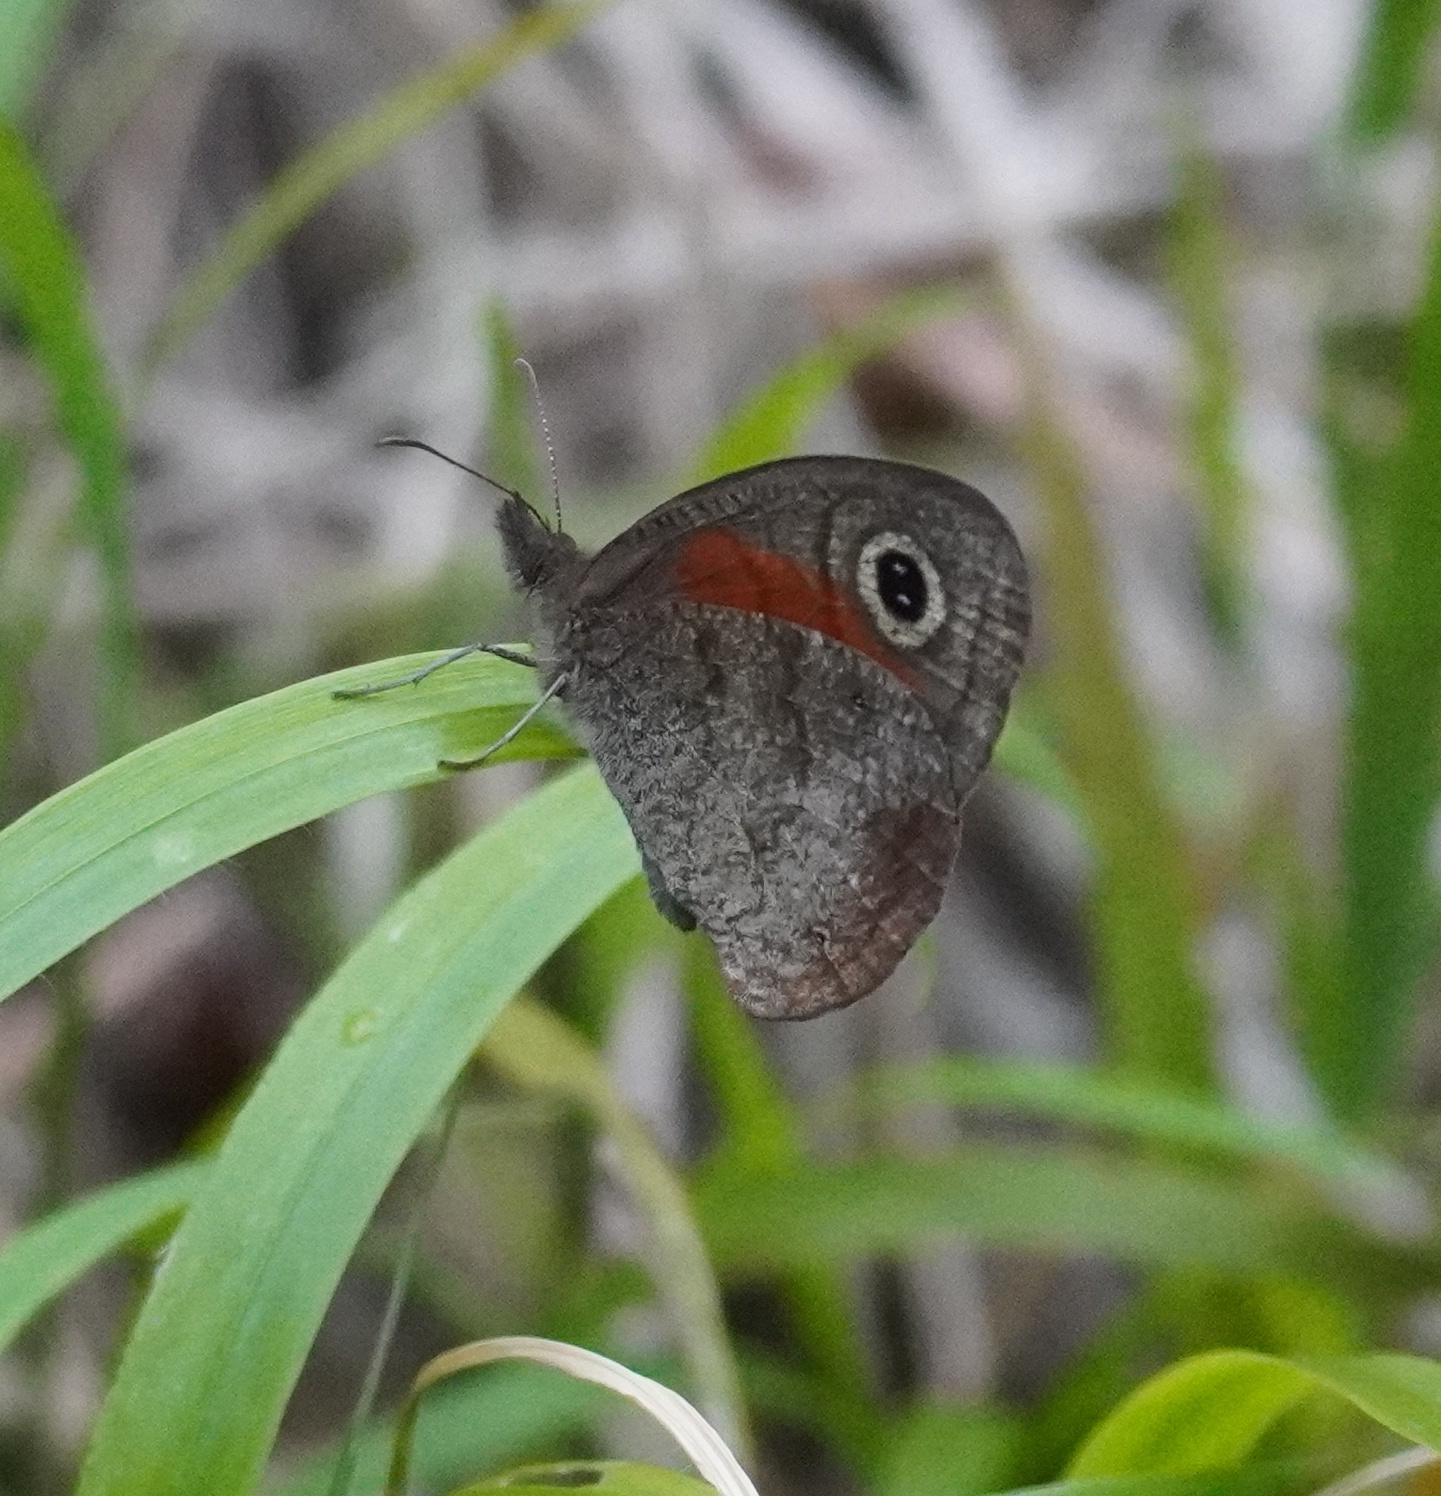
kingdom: Animalia
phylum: Arthropoda
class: Insecta
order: Lepidoptera
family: Nymphalidae
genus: Cassionympha
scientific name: Cassionympha cassius
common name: Rainforest brown
